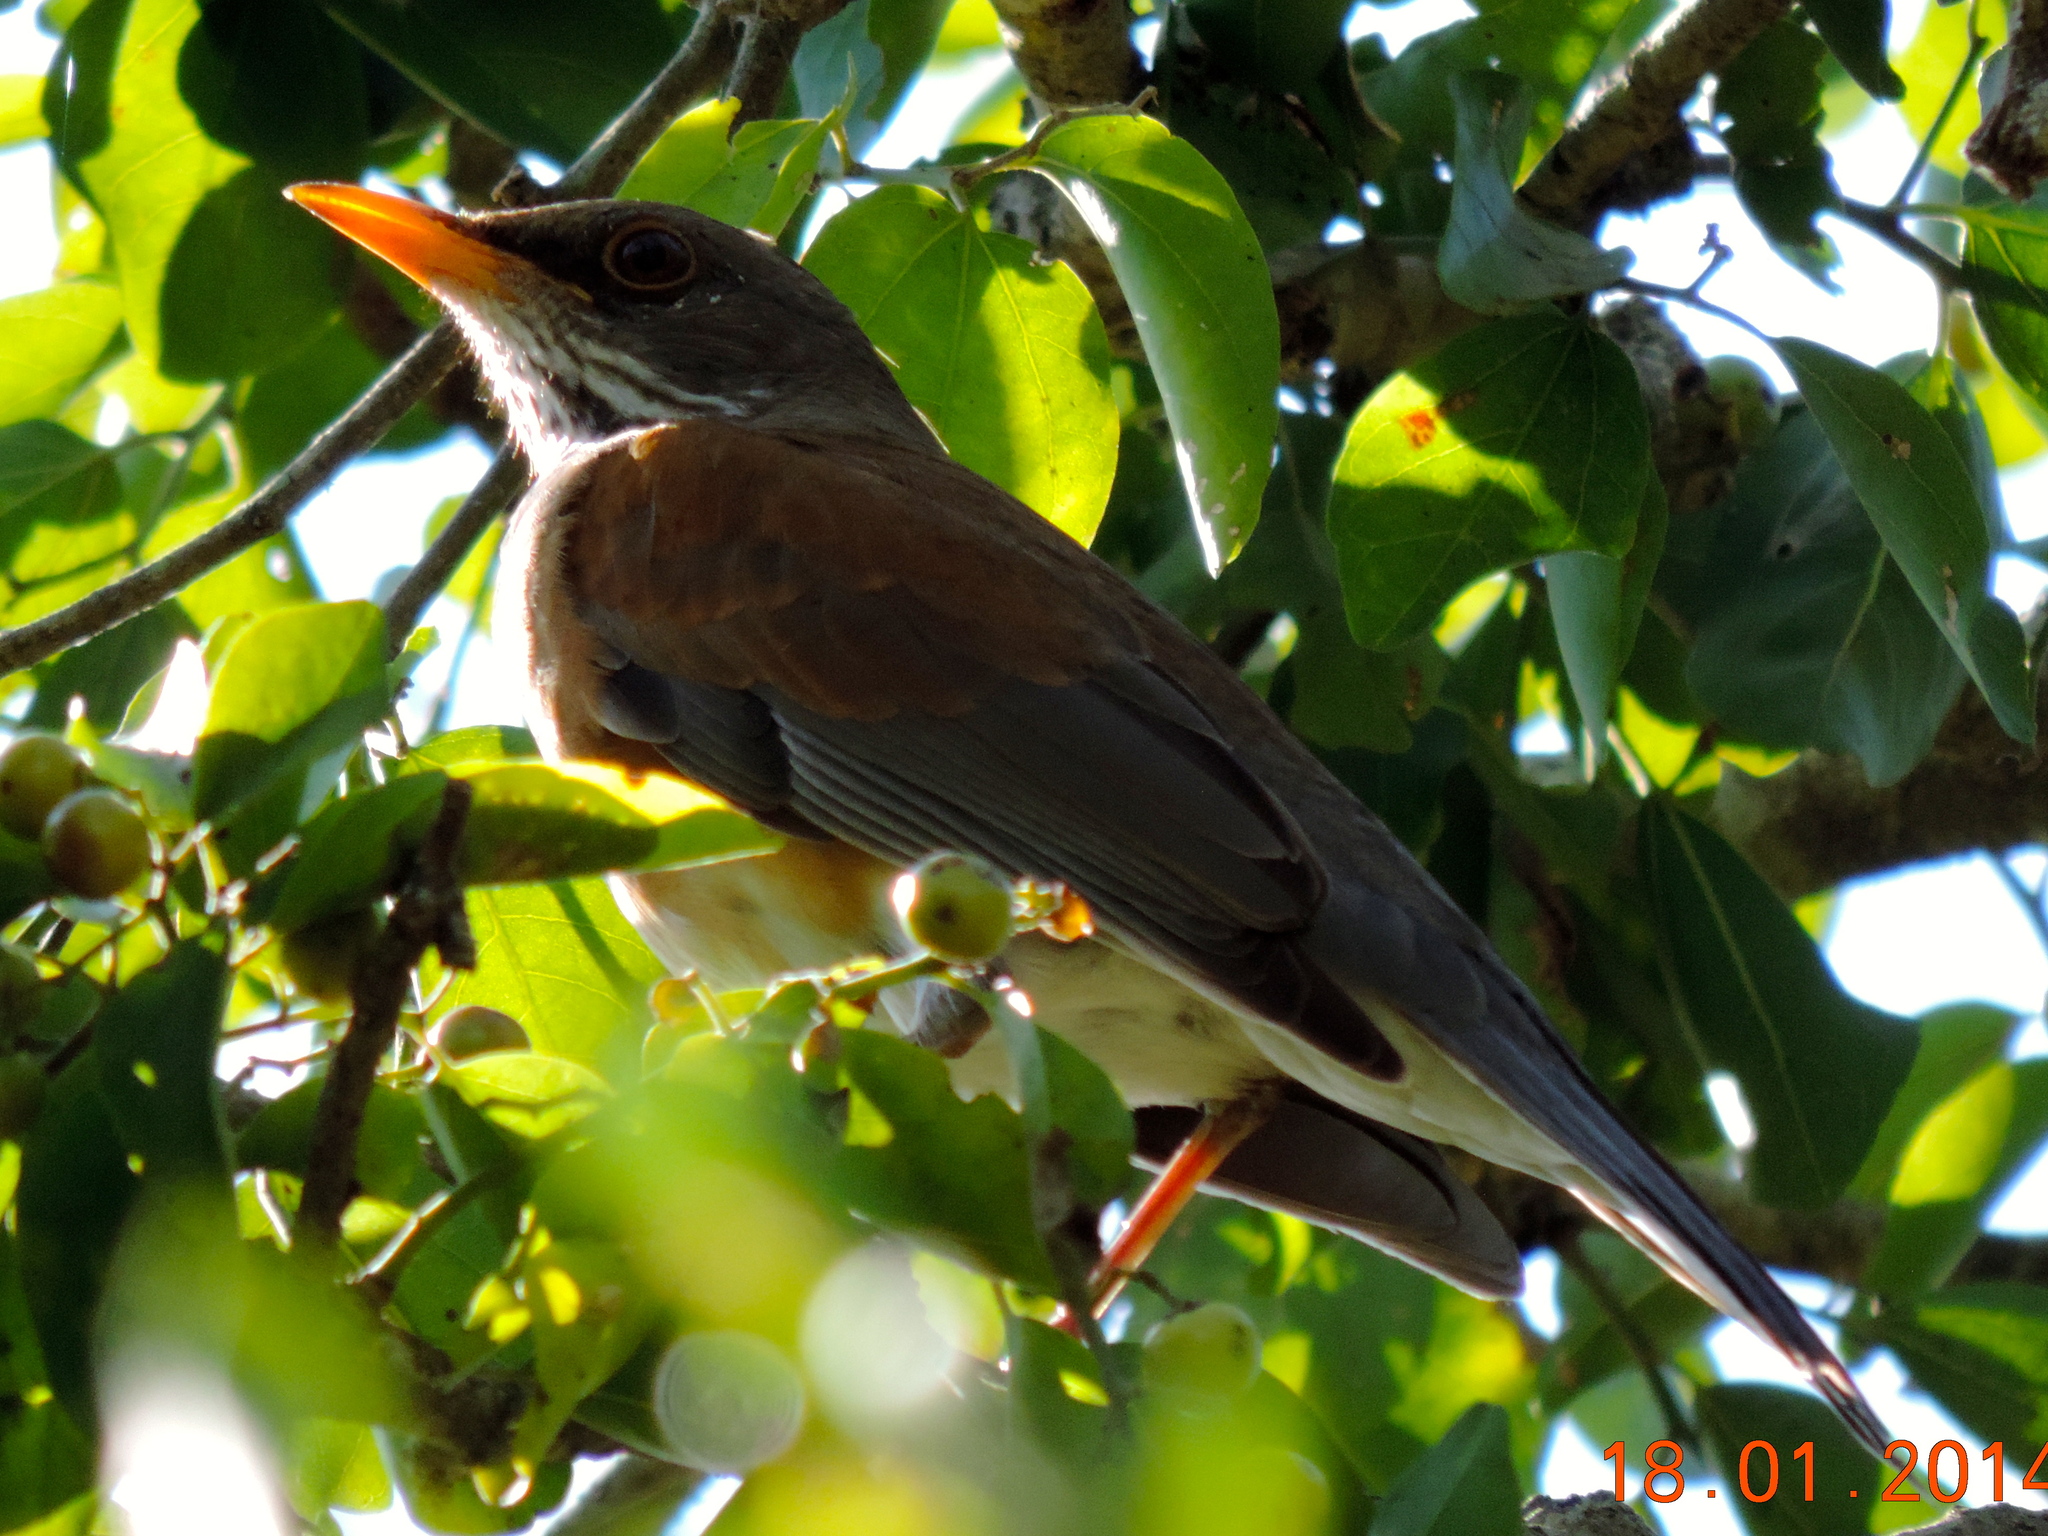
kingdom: Animalia
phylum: Chordata
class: Aves
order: Passeriformes
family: Turdidae
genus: Turdus
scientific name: Turdus rufopalliatus
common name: Rufous-backed robin
